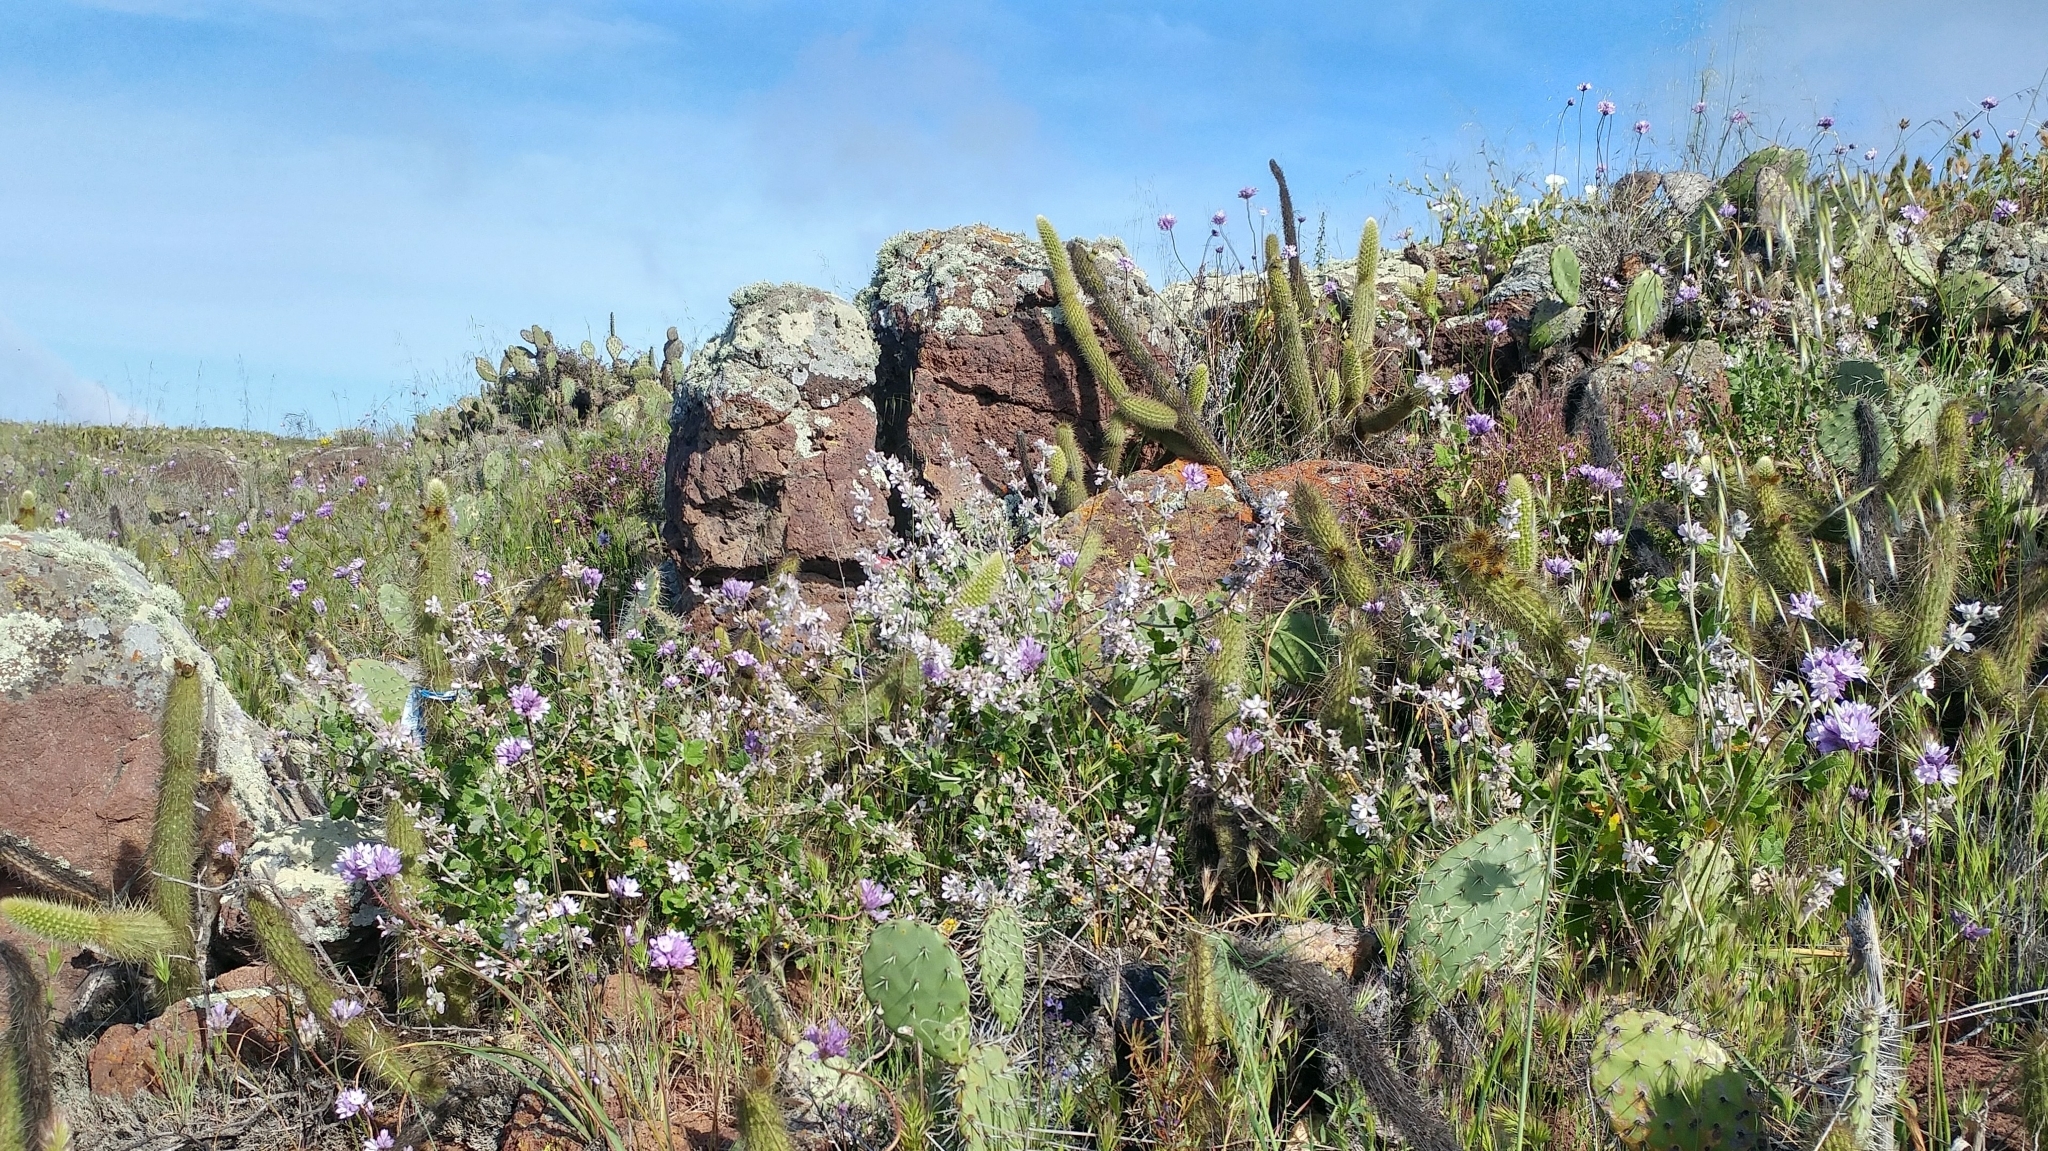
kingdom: Plantae
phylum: Tracheophyta
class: Magnoliopsida
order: Malvales
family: Malvaceae
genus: Malacothamnus
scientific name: Malacothamnus clementinus
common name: San clemente island bush-mallow
